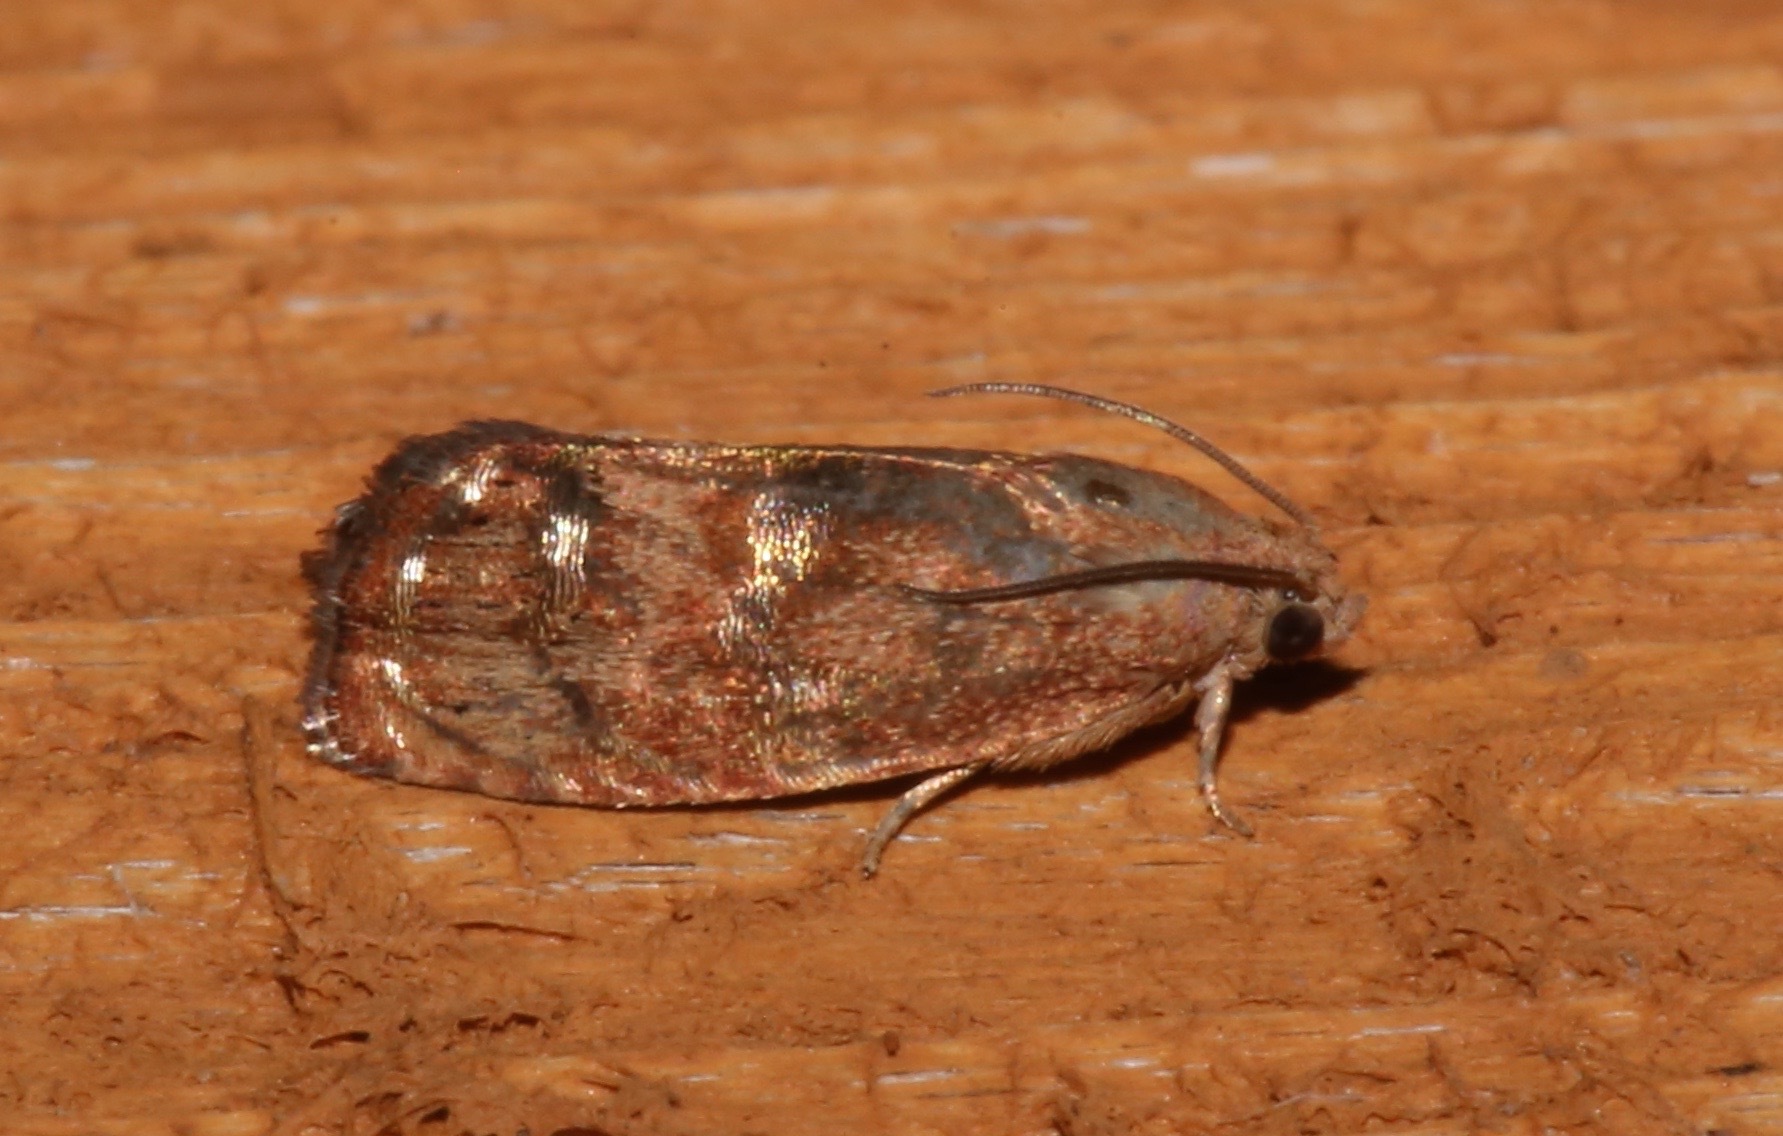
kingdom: Animalia
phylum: Arthropoda
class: Insecta
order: Lepidoptera
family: Tortricidae
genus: Cydia
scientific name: Cydia latiferreana
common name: Filbertworm moth
